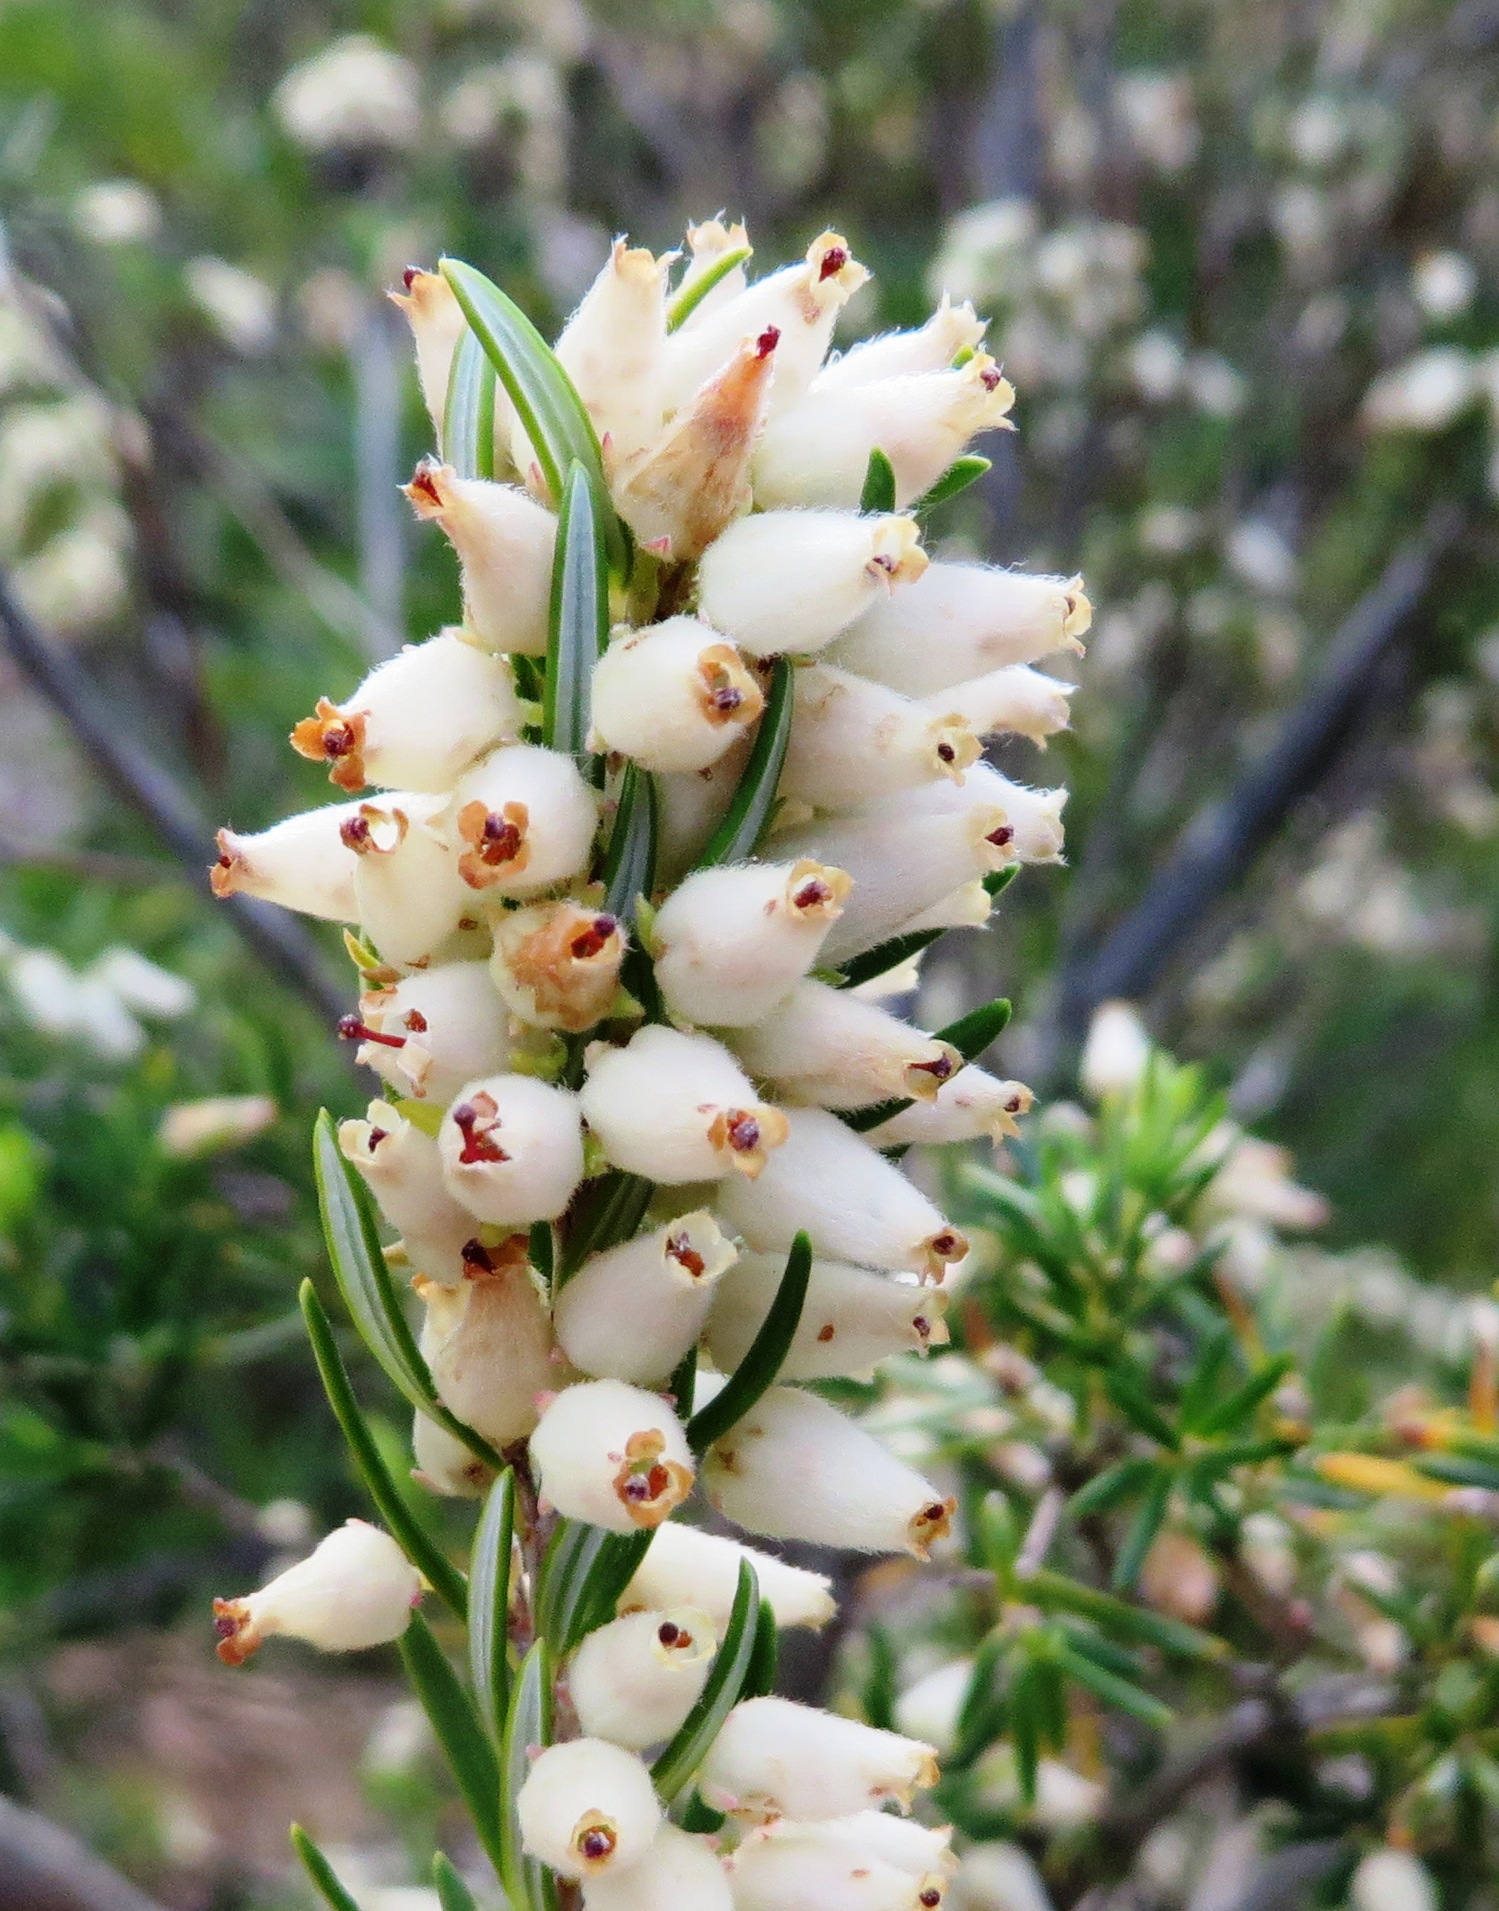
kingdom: Plantae
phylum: Tracheophyta
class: Magnoliopsida
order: Ericales
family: Ericaceae
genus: Erica
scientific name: Erica caffra
